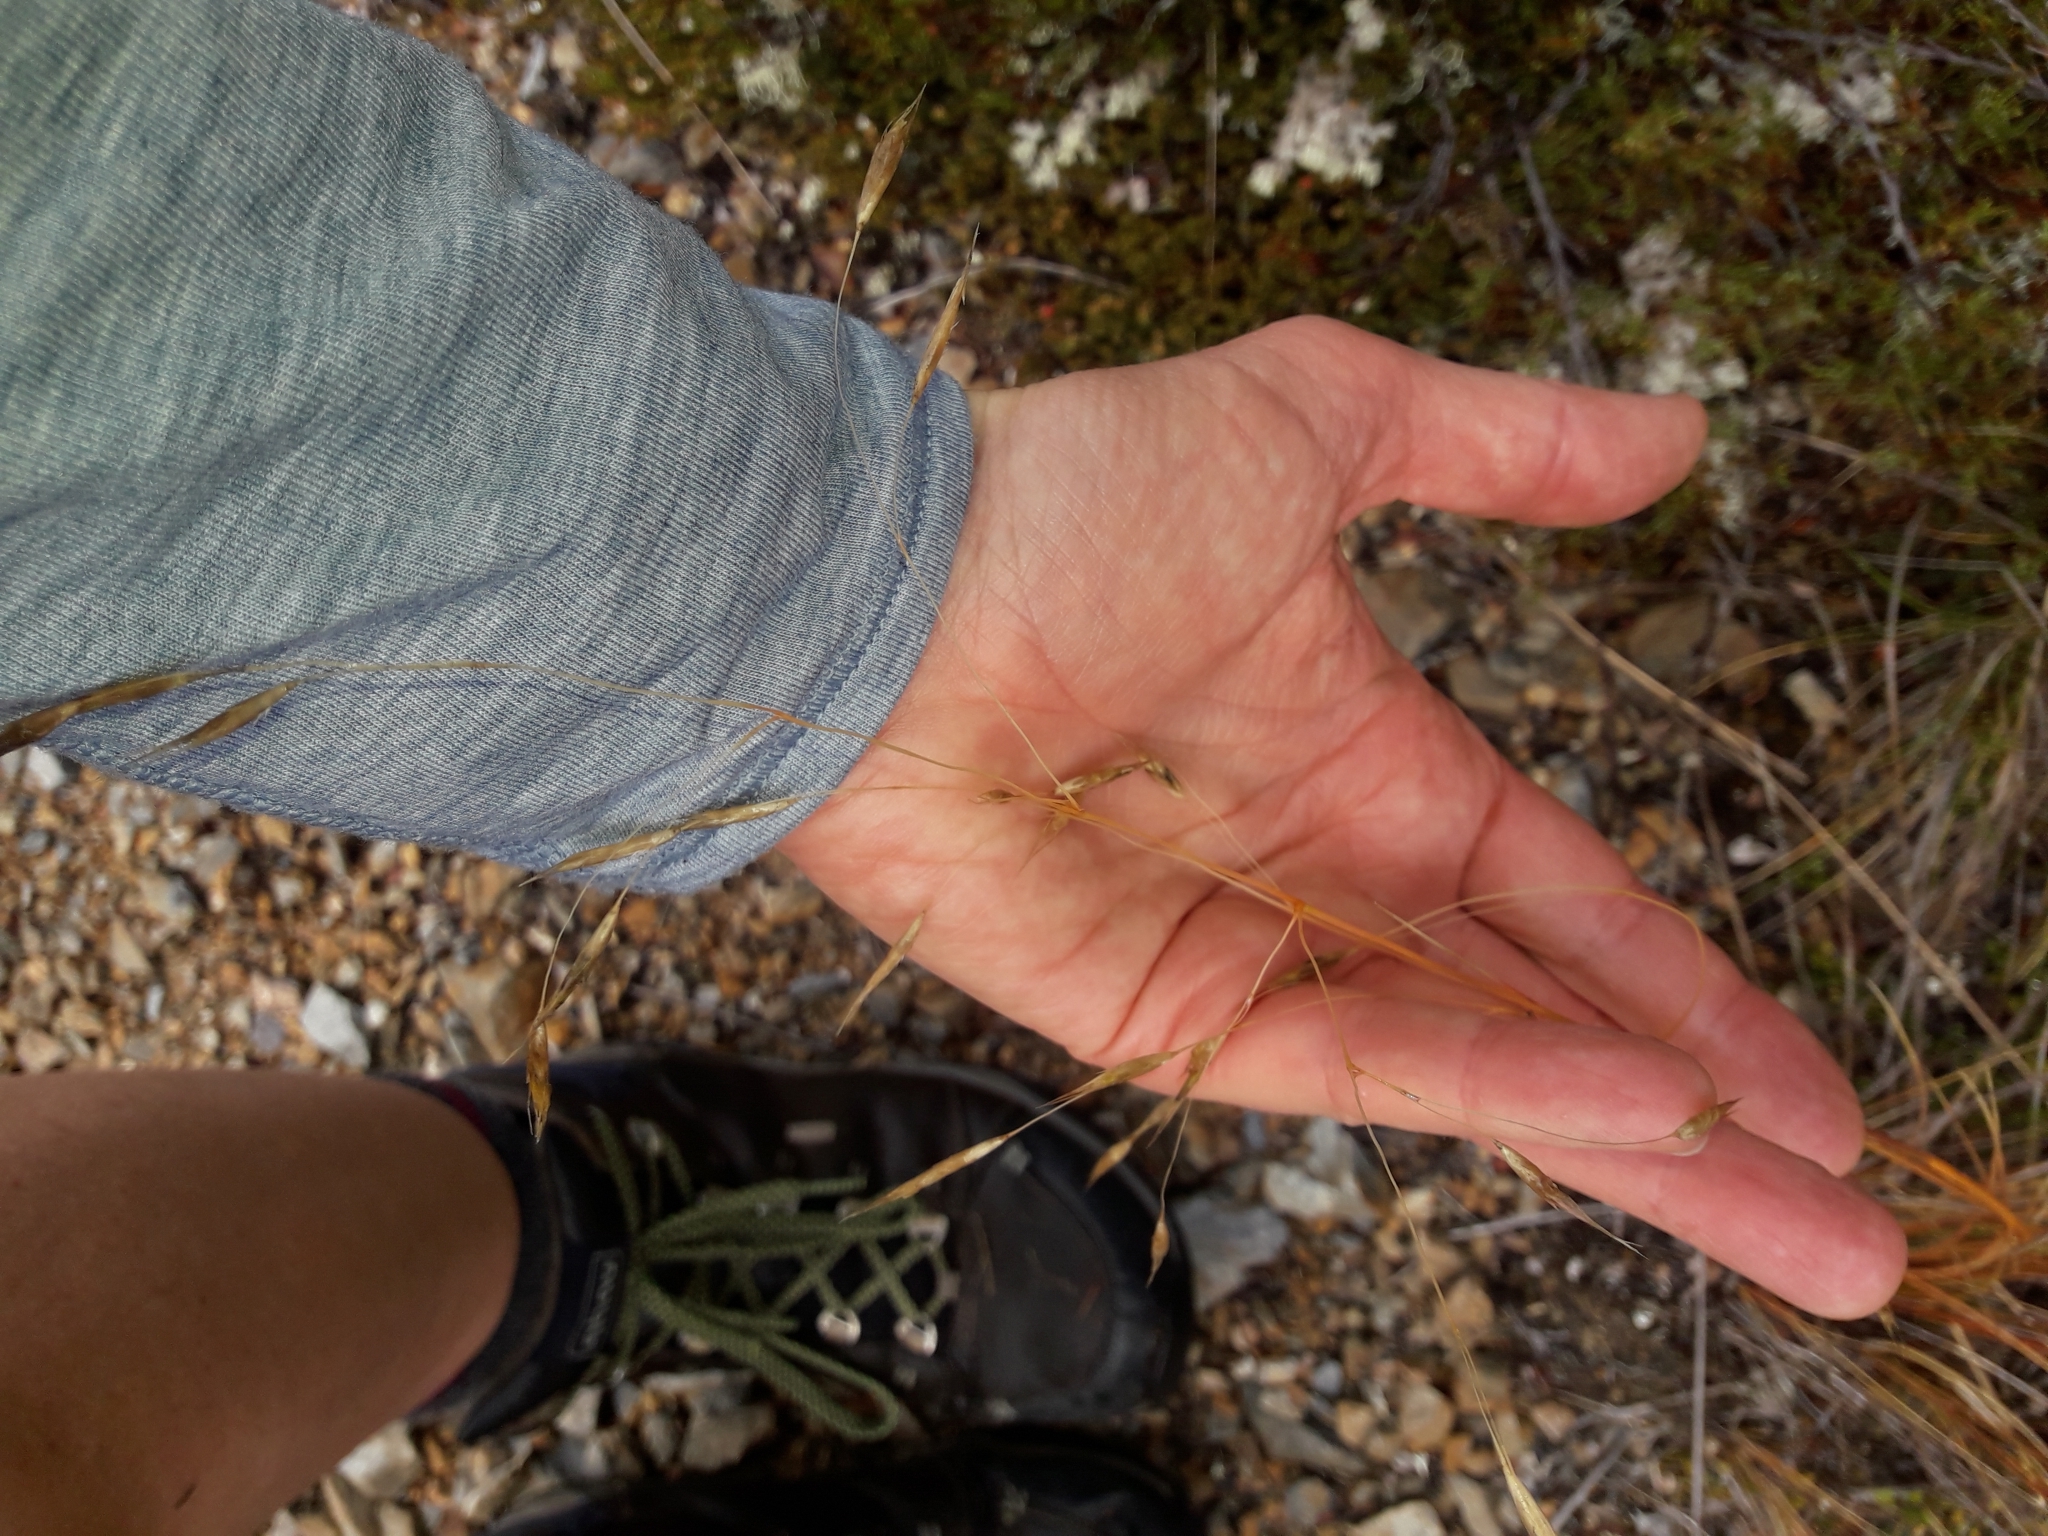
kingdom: Plantae
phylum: Tracheophyta
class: Liliopsida
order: Poales
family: Poaceae
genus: Chionochloa
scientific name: Chionochloa rubra
